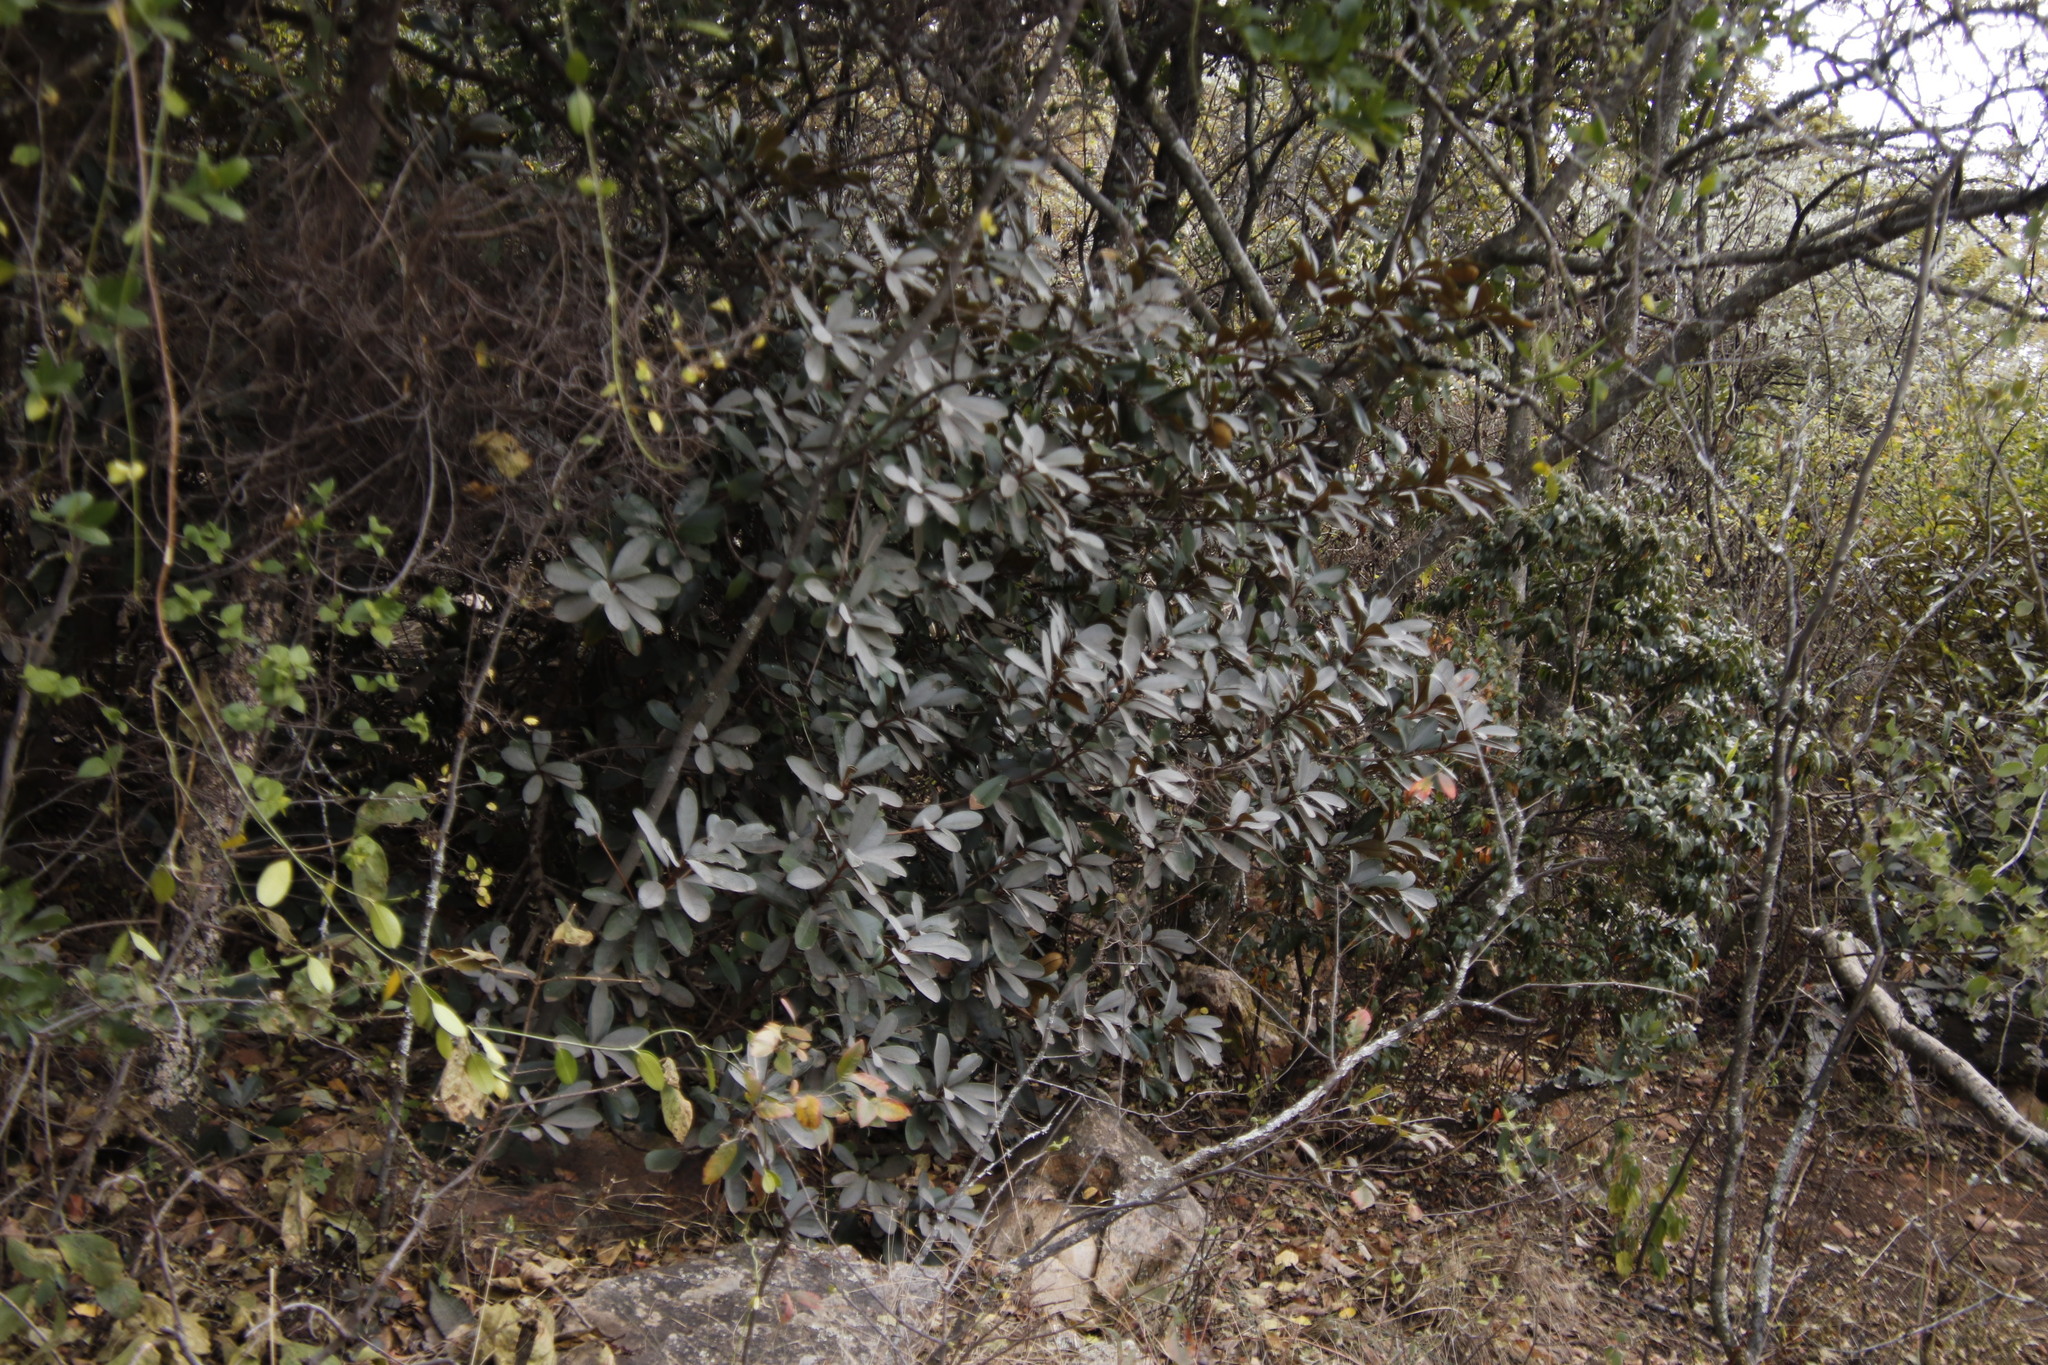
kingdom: Plantae
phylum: Tracheophyta
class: Magnoliopsida
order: Ericales
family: Sapotaceae
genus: Englerophytum
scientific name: Englerophytum magalismontanum
